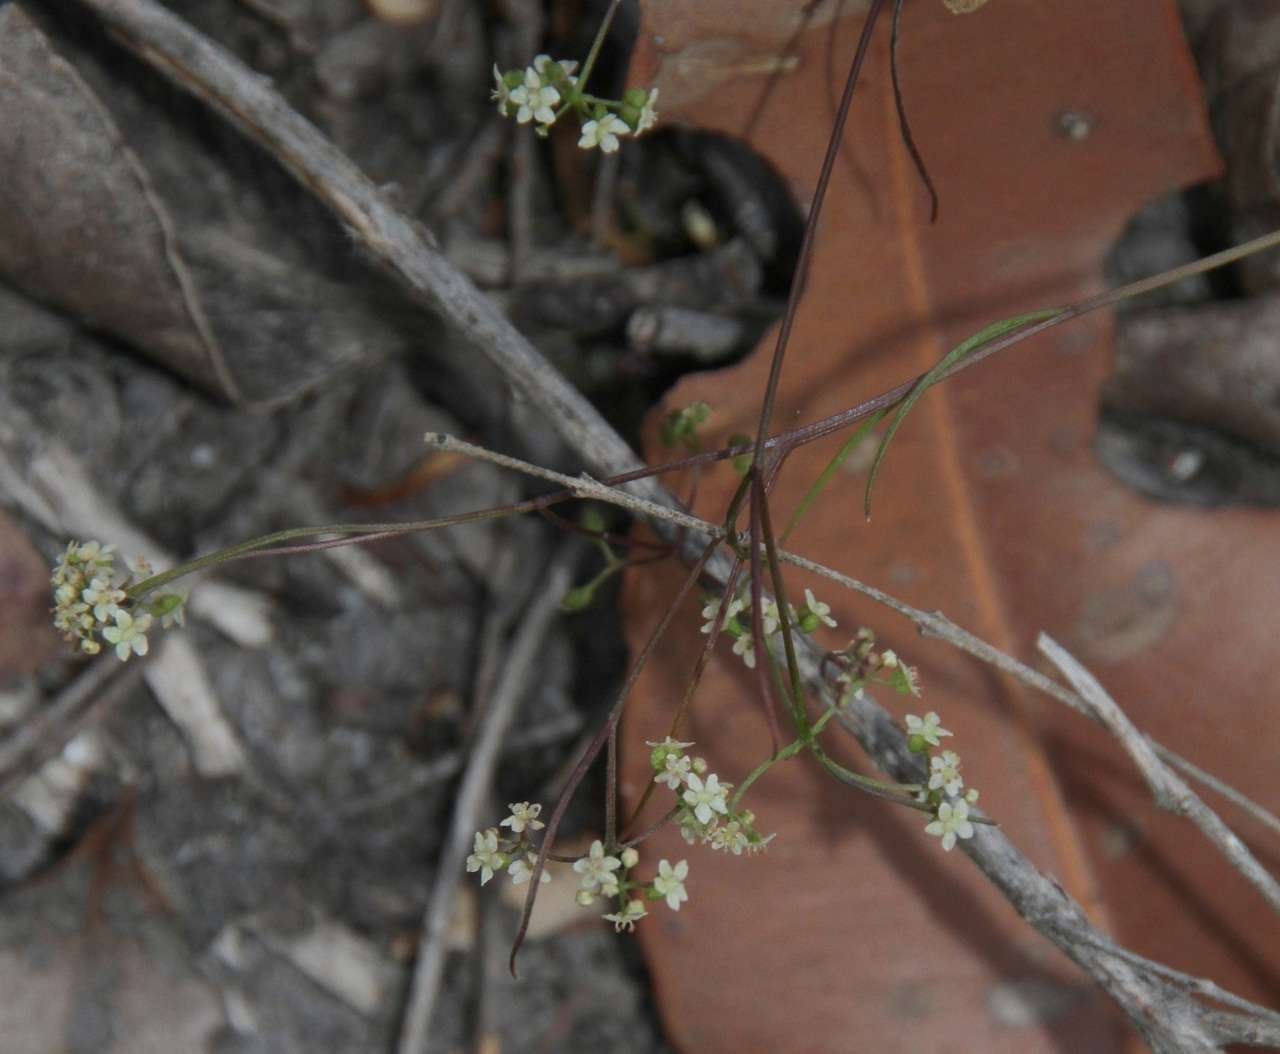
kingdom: Plantae
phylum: Tracheophyta
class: Magnoliopsida
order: Apiales
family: Apiaceae
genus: Platysace
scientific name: Platysace heterophylla
